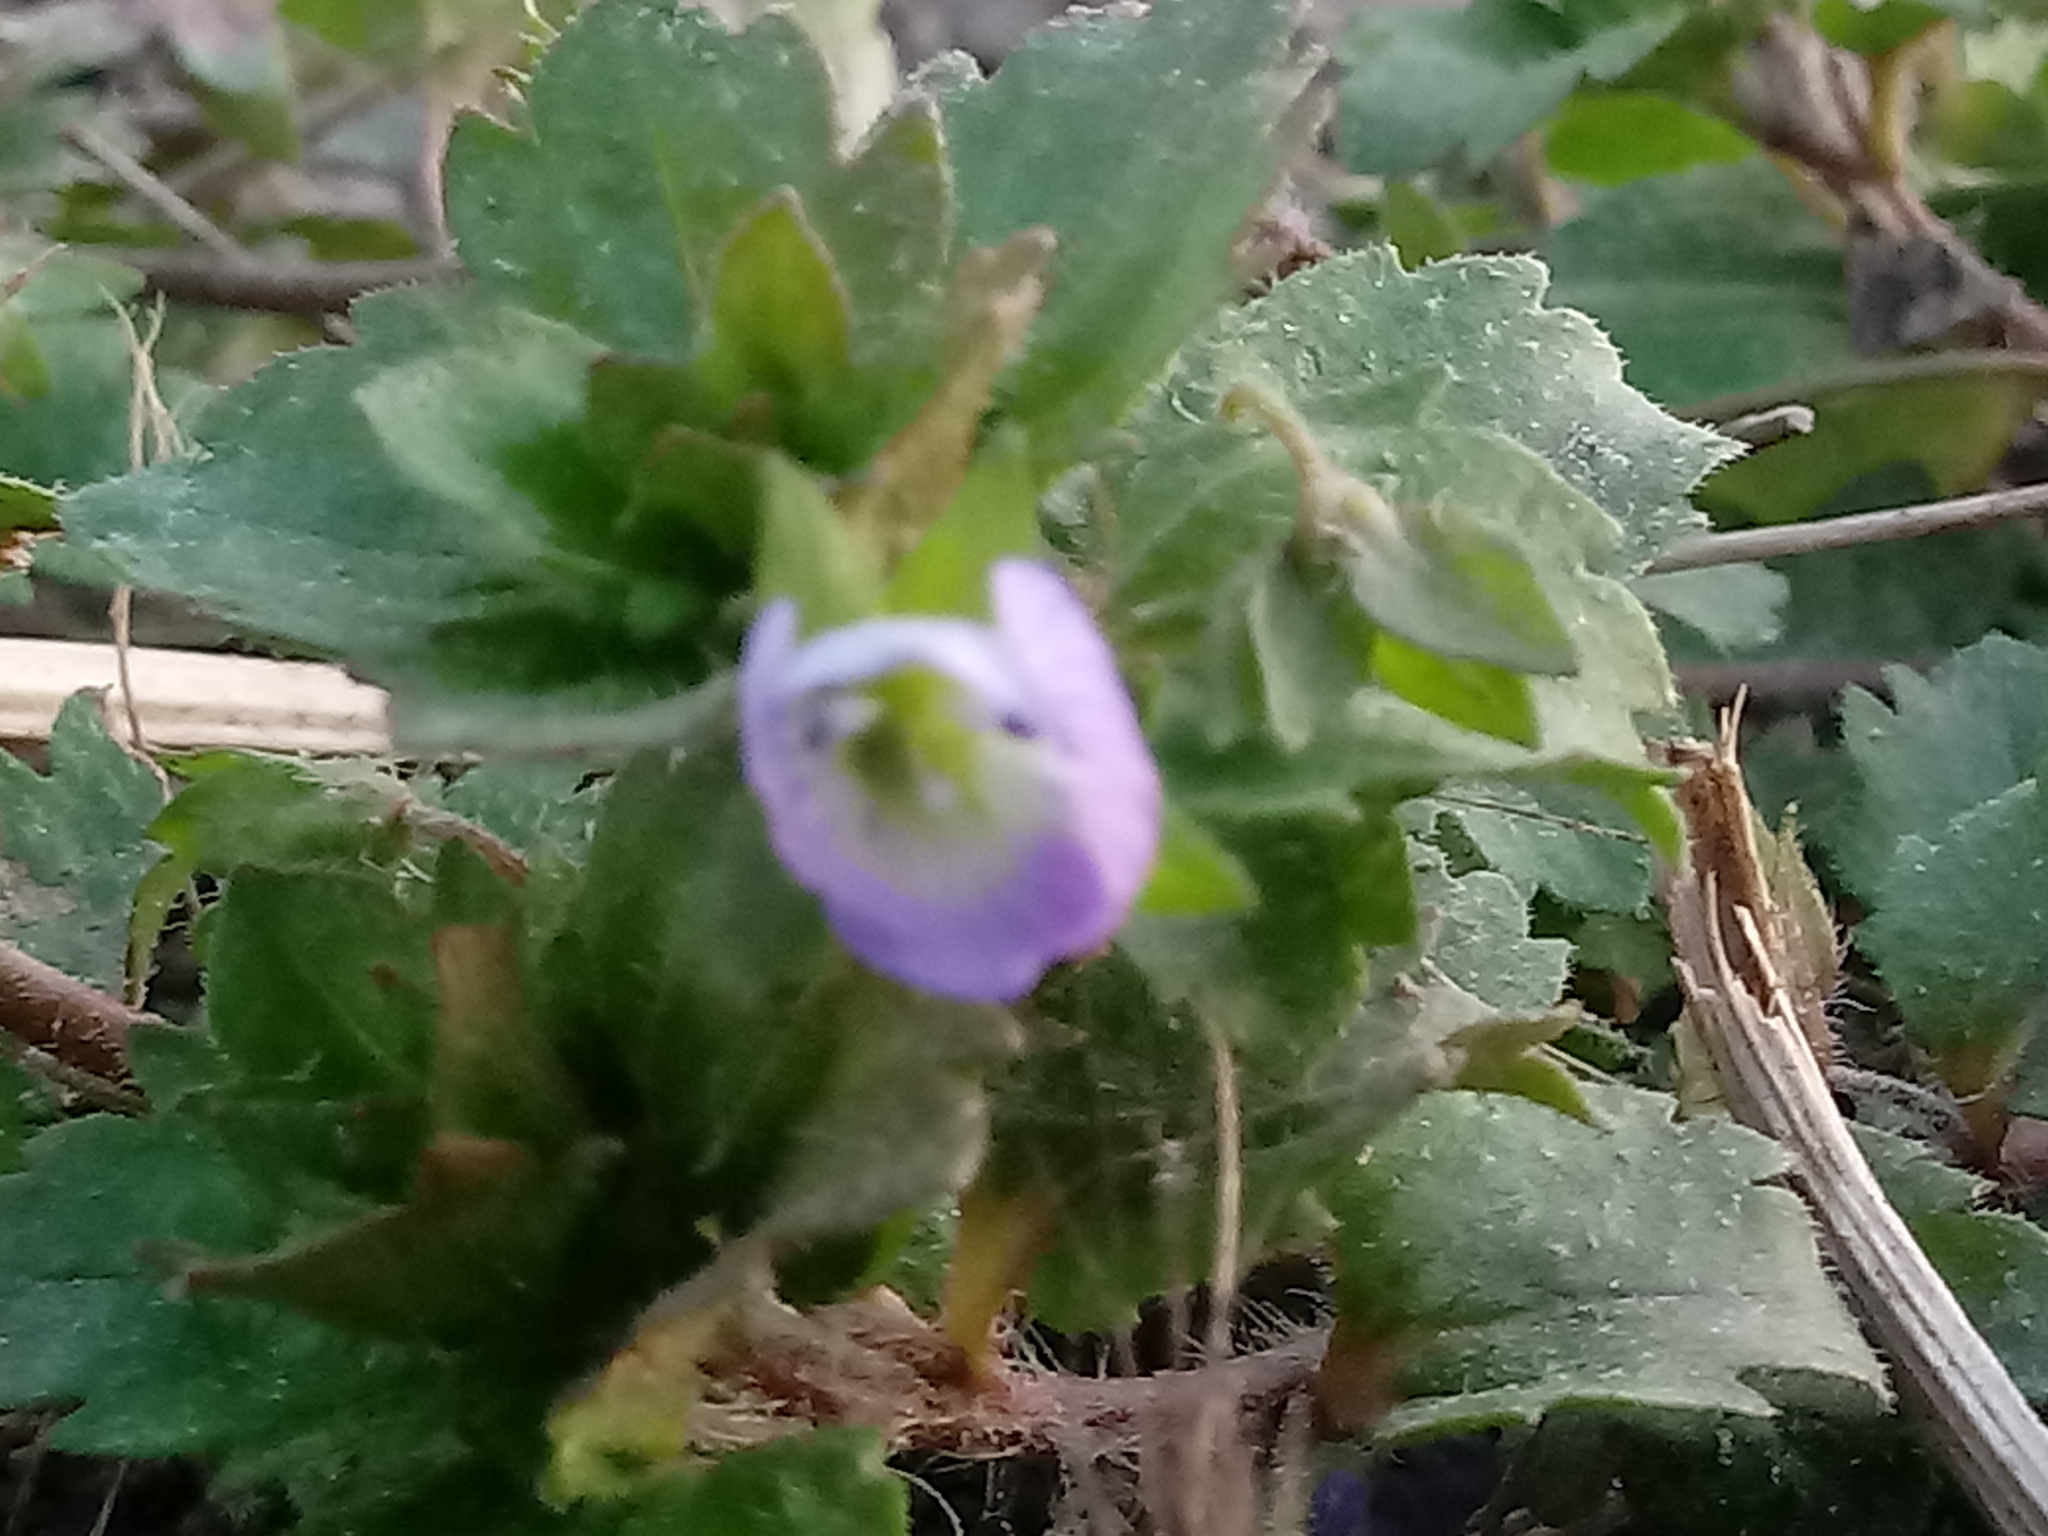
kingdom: Plantae
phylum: Tracheophyta
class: Magnoliopsida
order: Lamiales
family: Plantaginaceae
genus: Veronica
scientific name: Veronica persica
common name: Common field-speedwell
